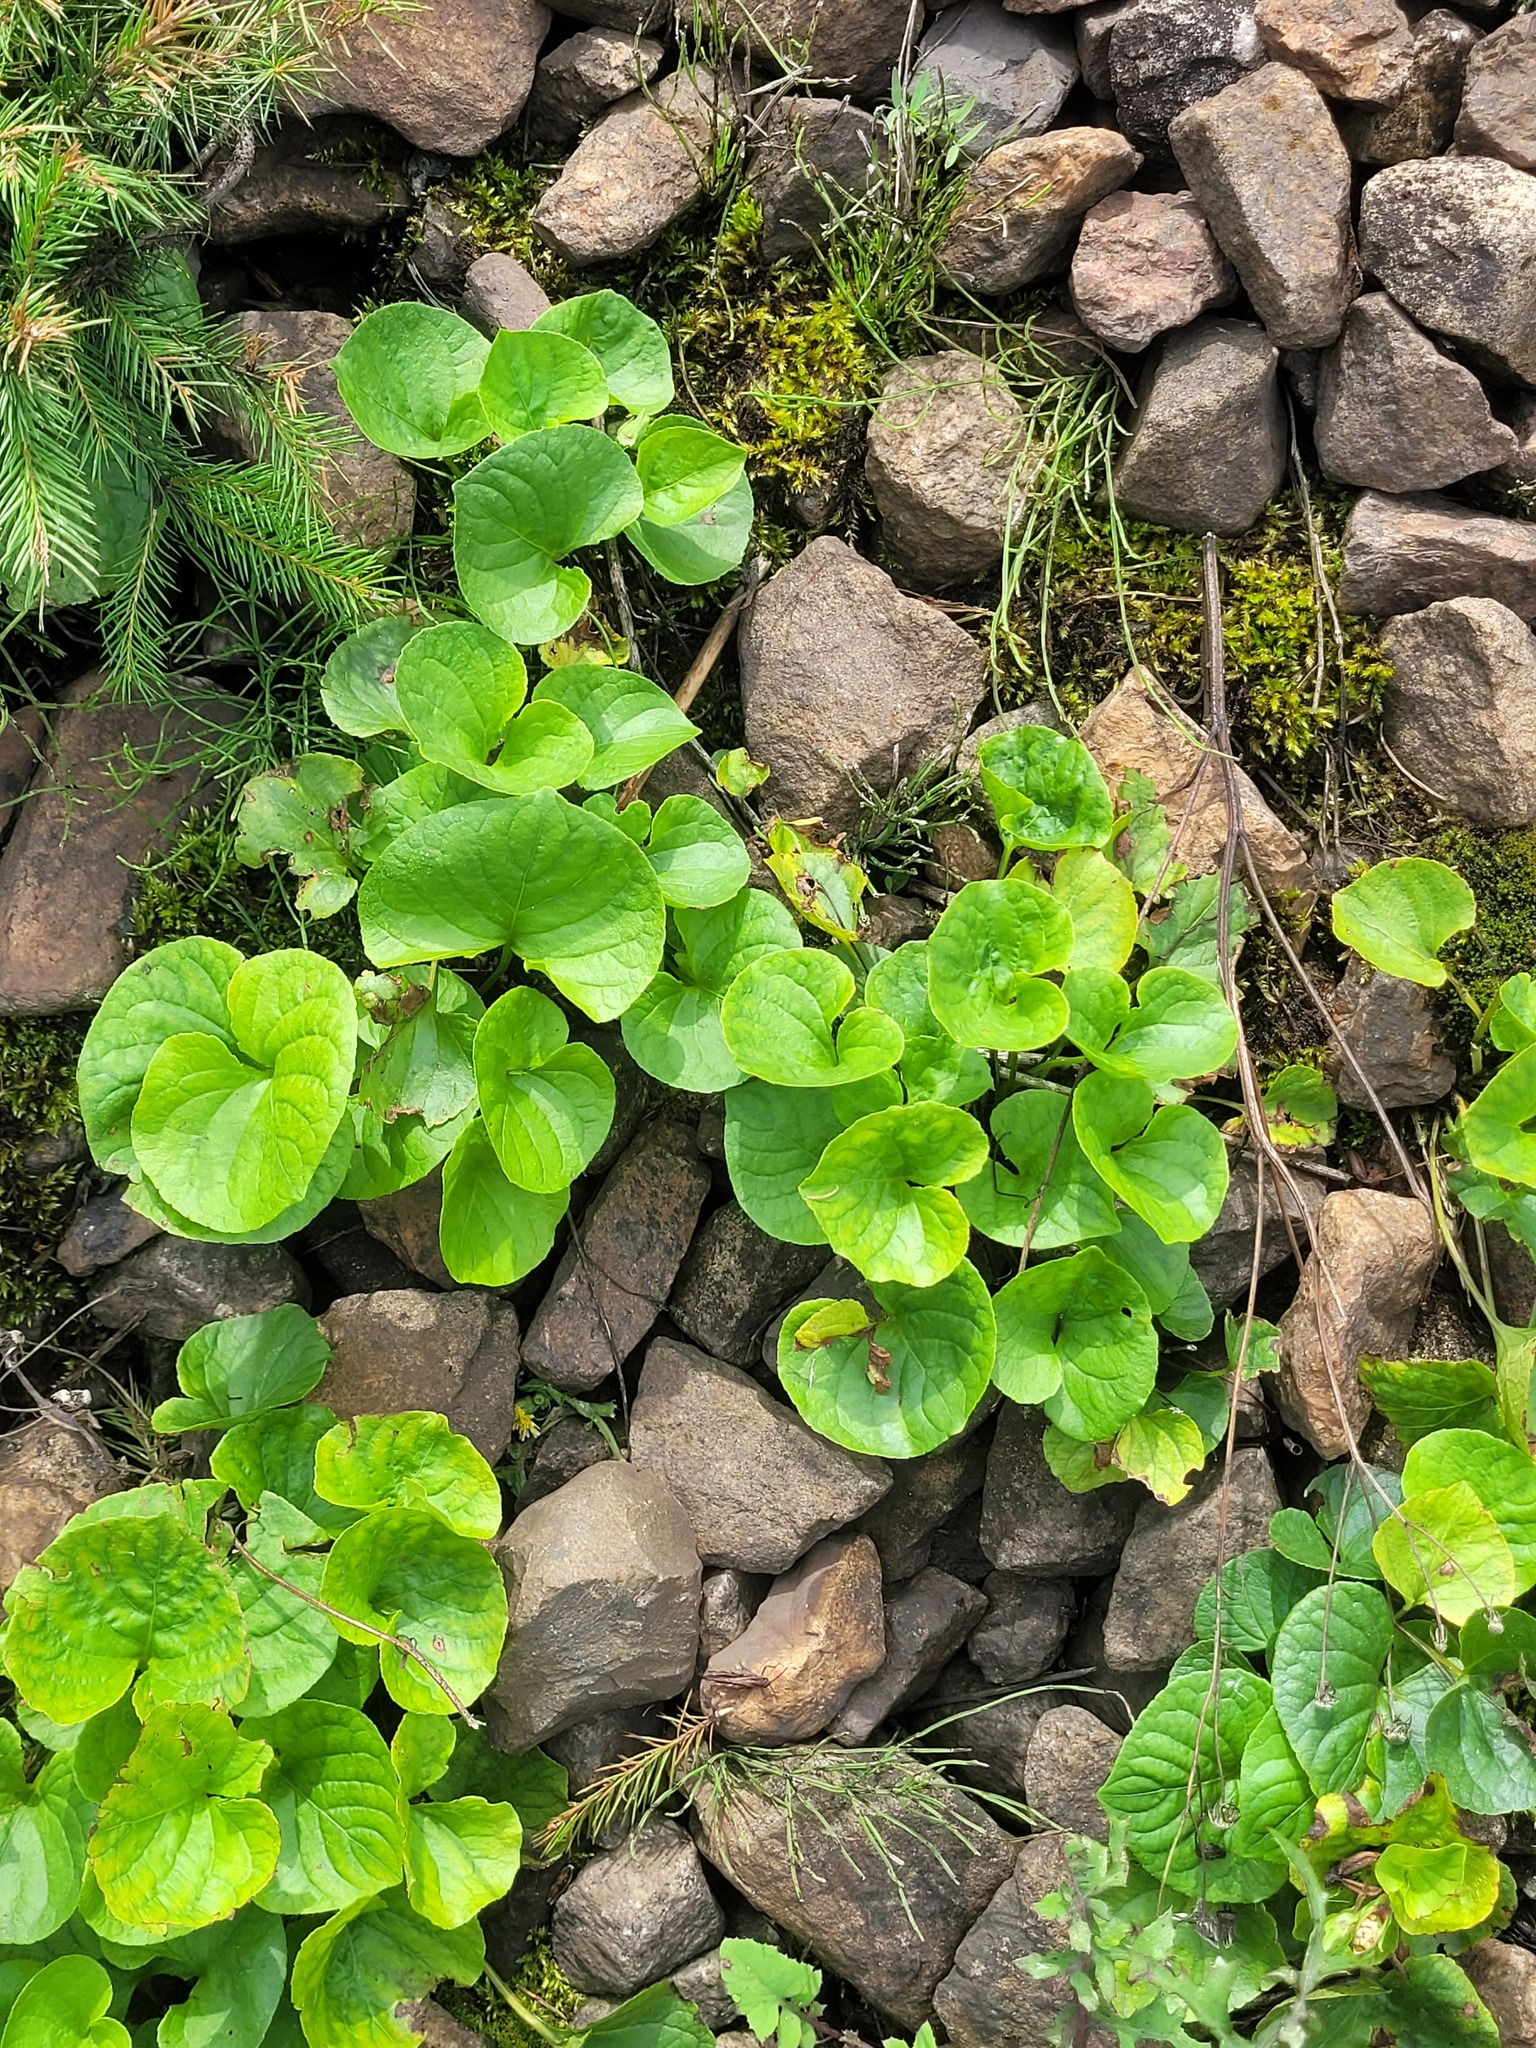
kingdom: Plantae
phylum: Tracheophyta
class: Magnoliopsida
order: Malpighiales
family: Violaceae
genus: Viola
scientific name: Viola mirabilis
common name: Wonder violet
